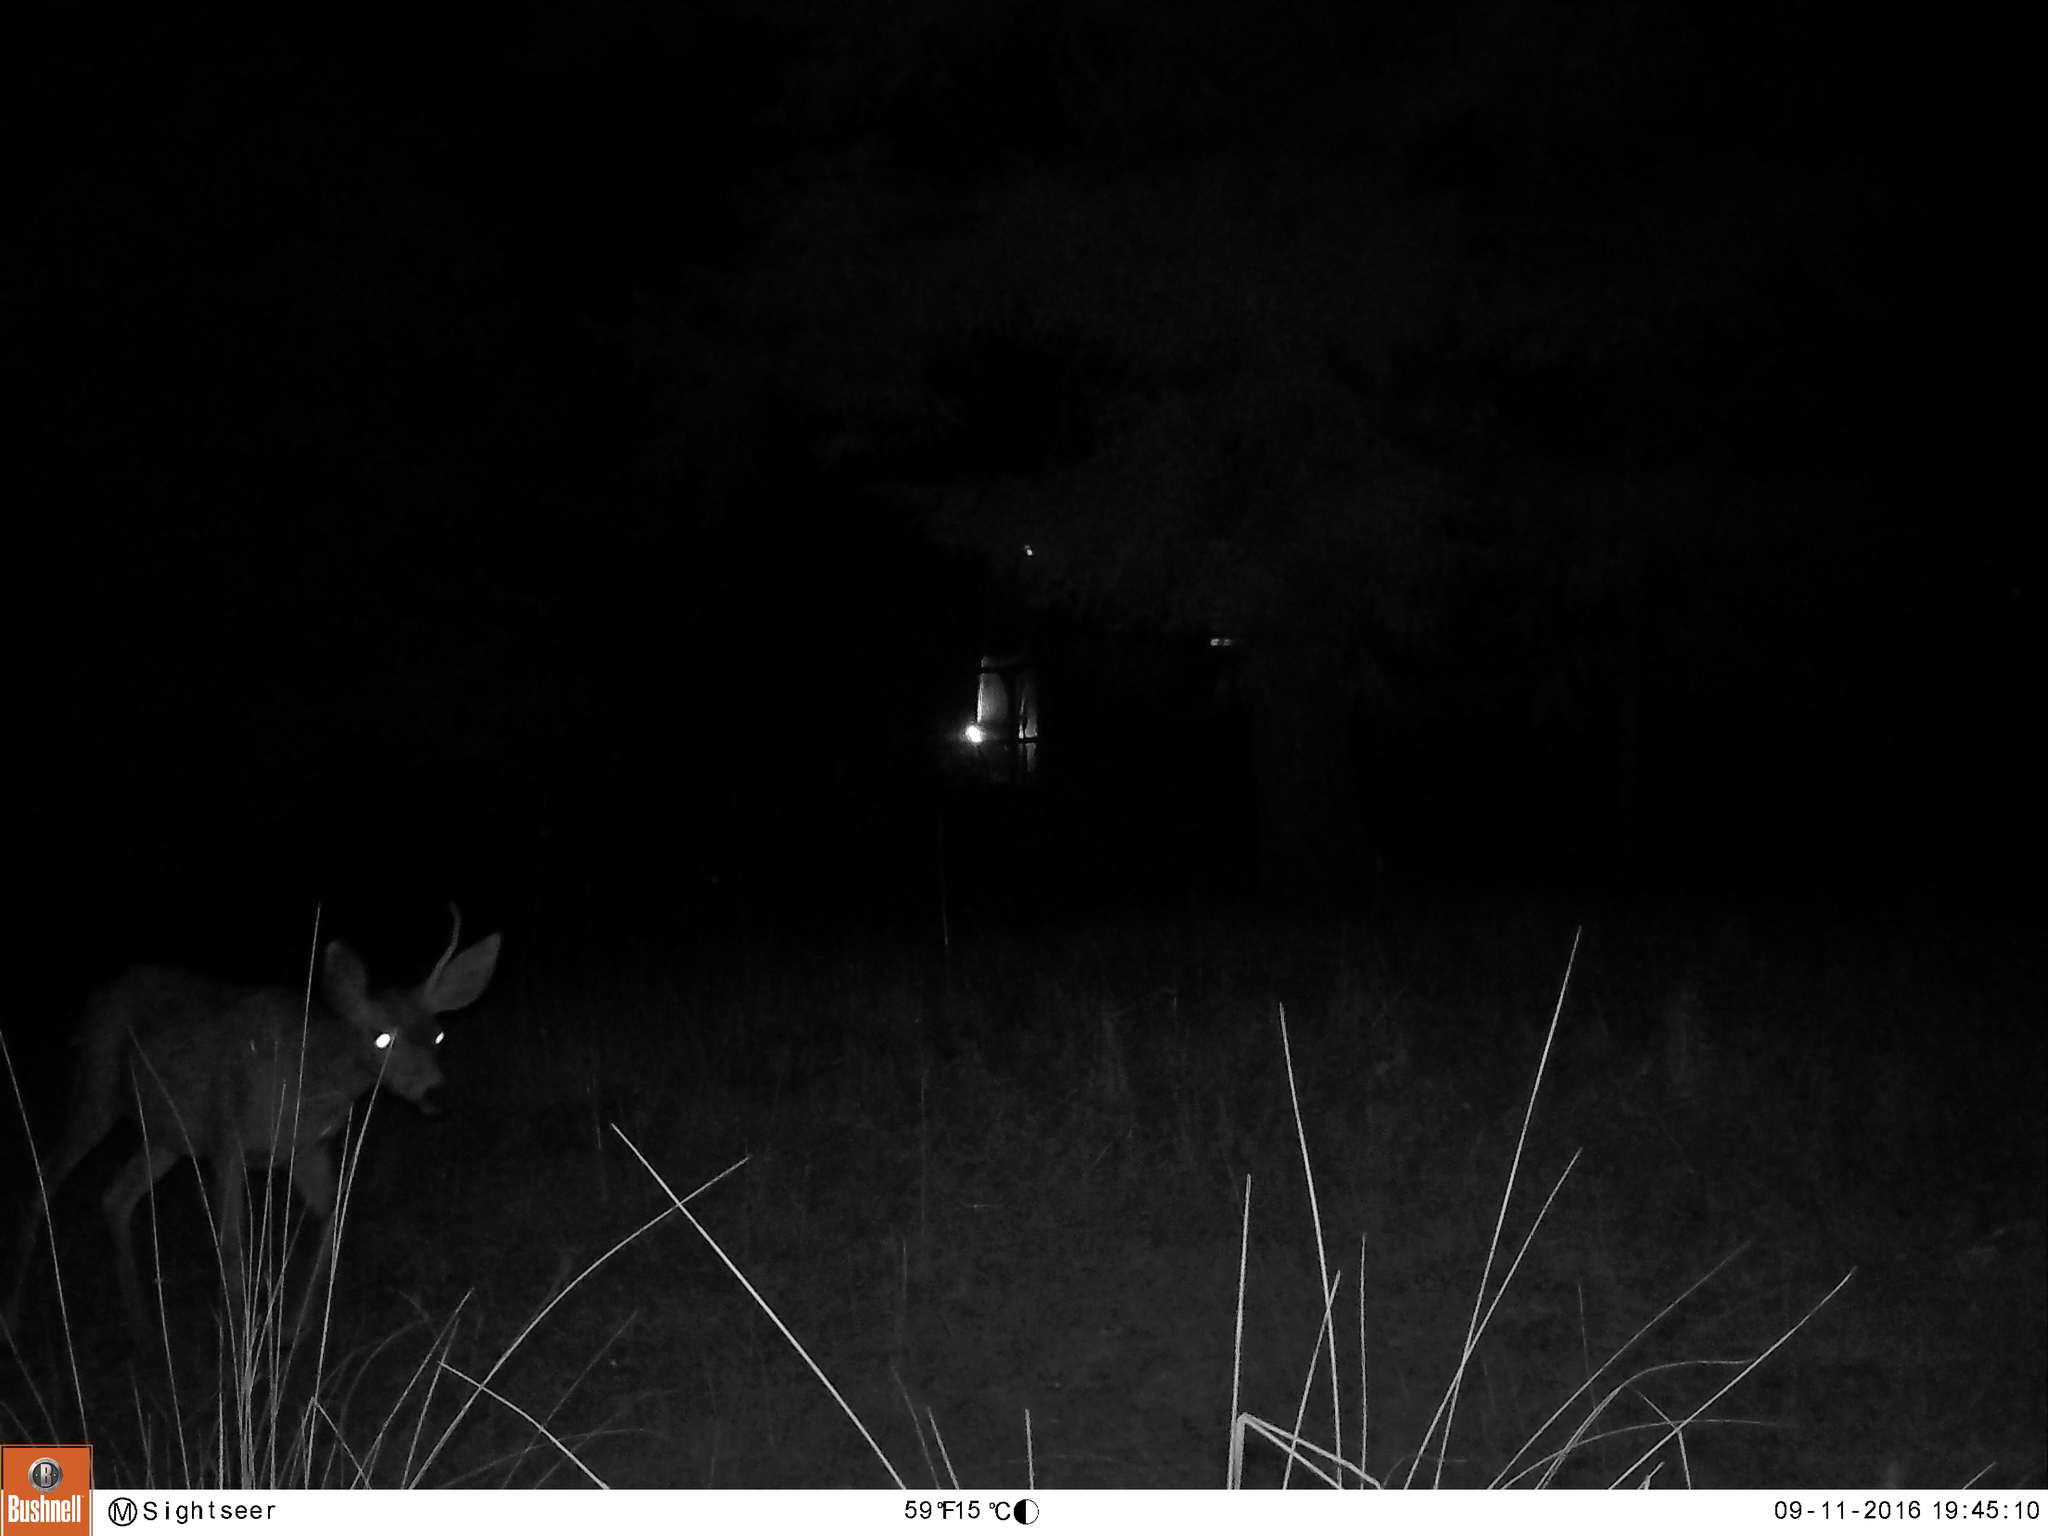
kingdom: Animalia
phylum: Chordata
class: Mammalia
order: Artiodactyla
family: Cervidae
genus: Odocoileus
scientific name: Odocoileus hemionus
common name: Mule deer
